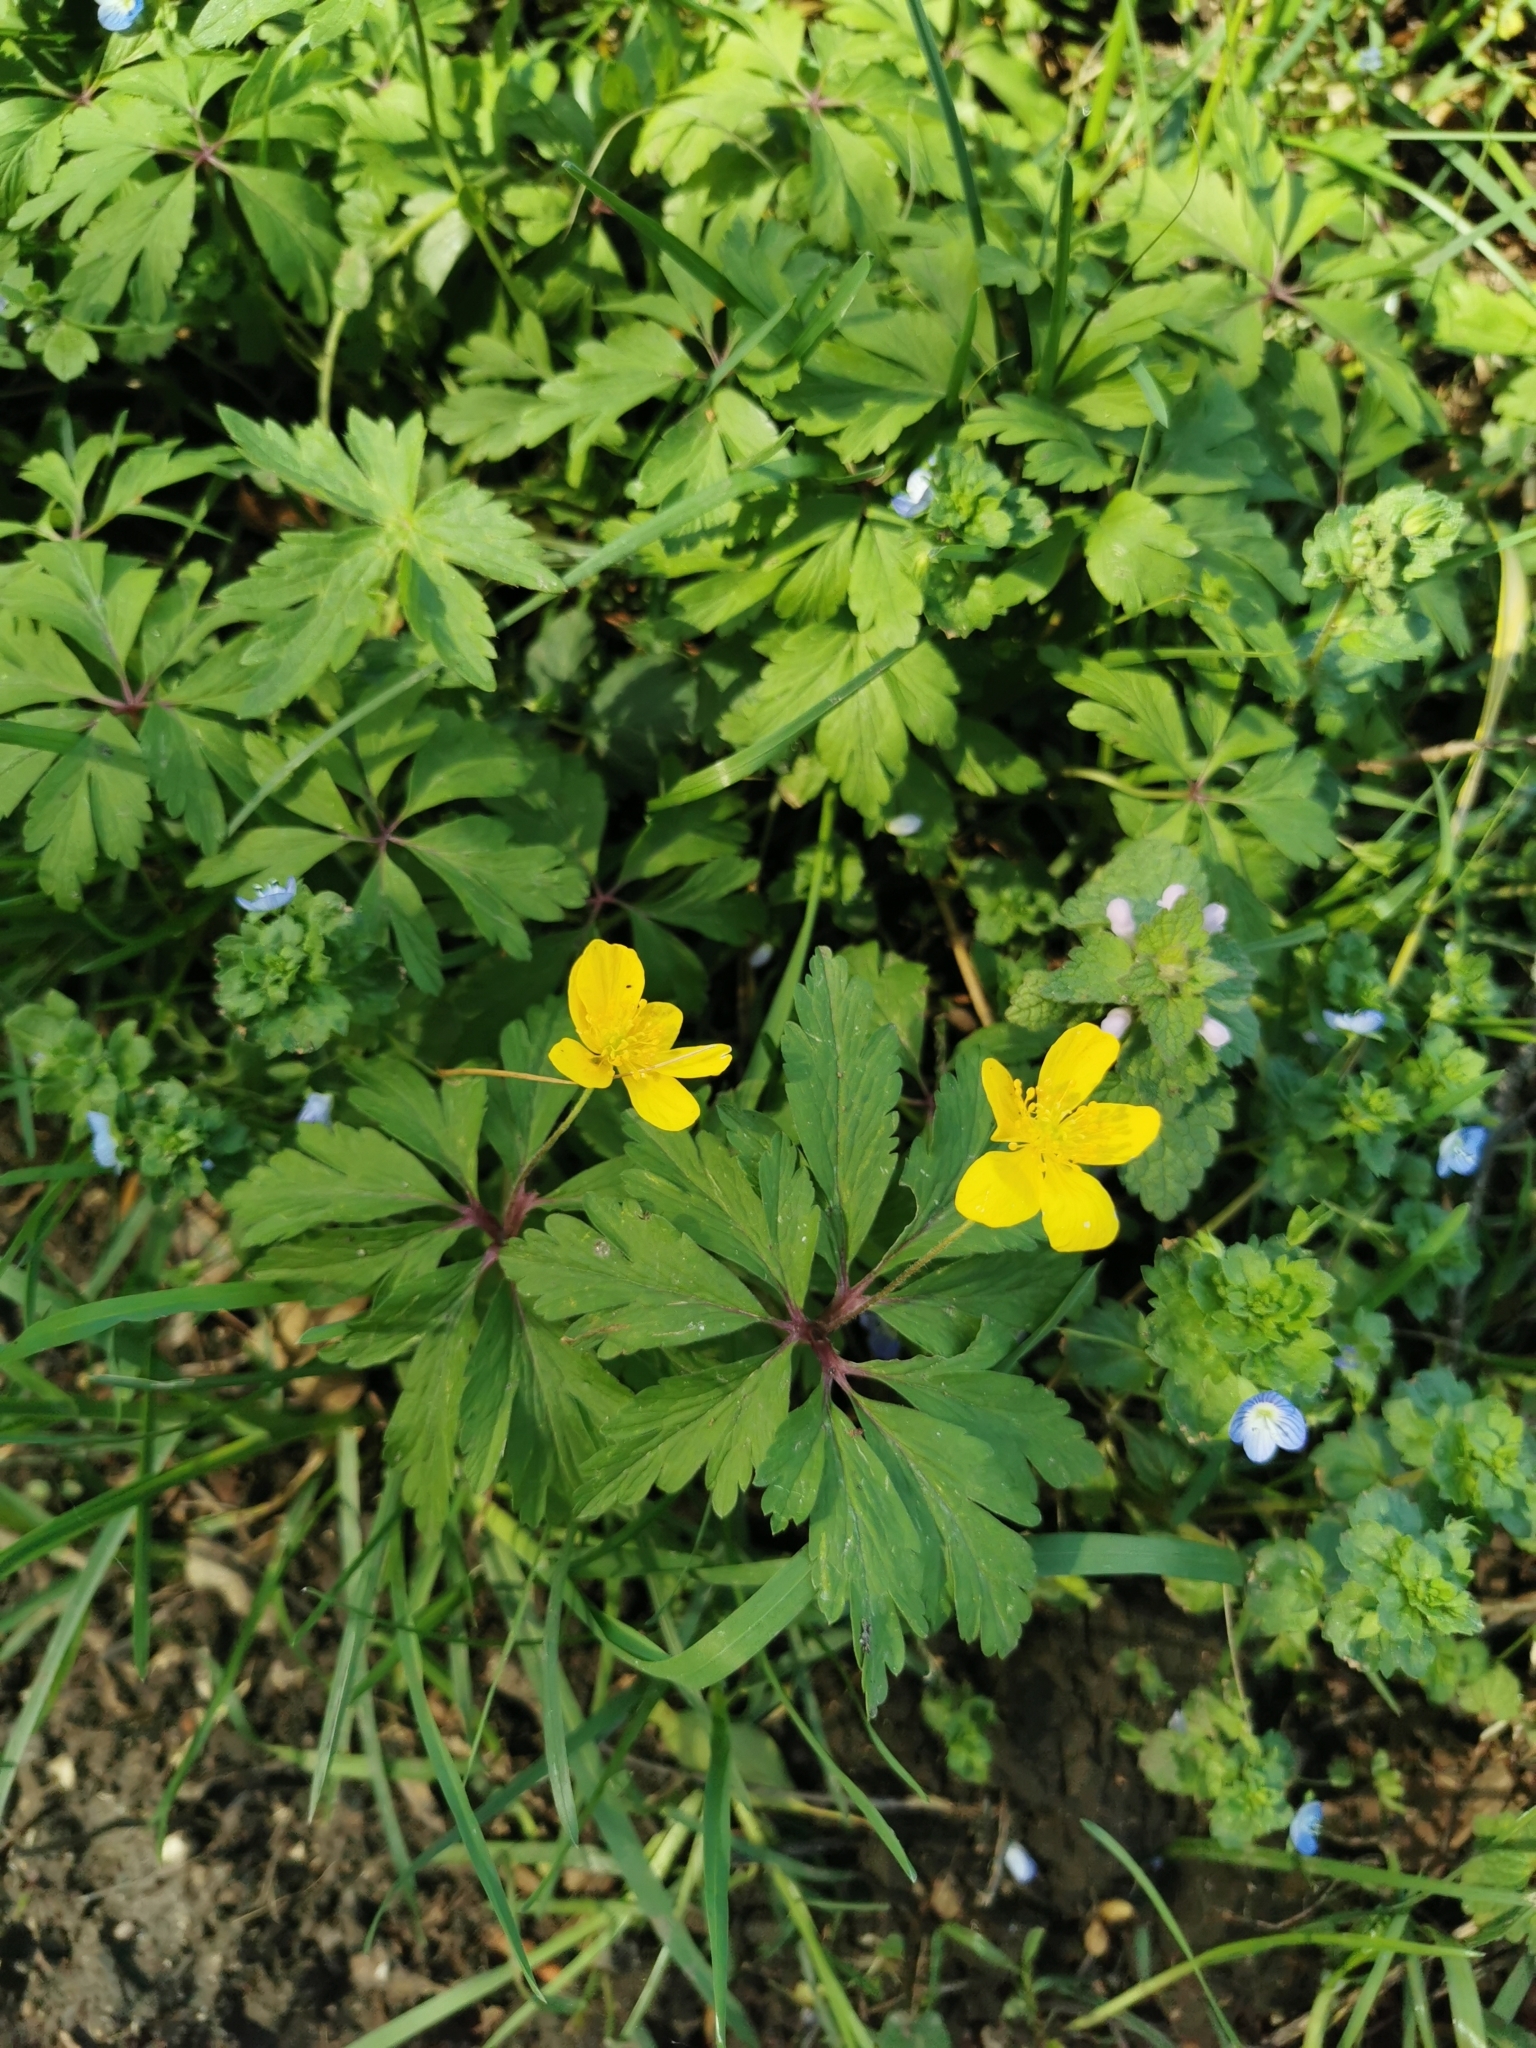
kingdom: Plantae
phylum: Tracheophyta
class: Magnoliopsida
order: Ranunculales
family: Ranunculaceae
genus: Anemone
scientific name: Anemone ranunculoides
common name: Yellow anemone
